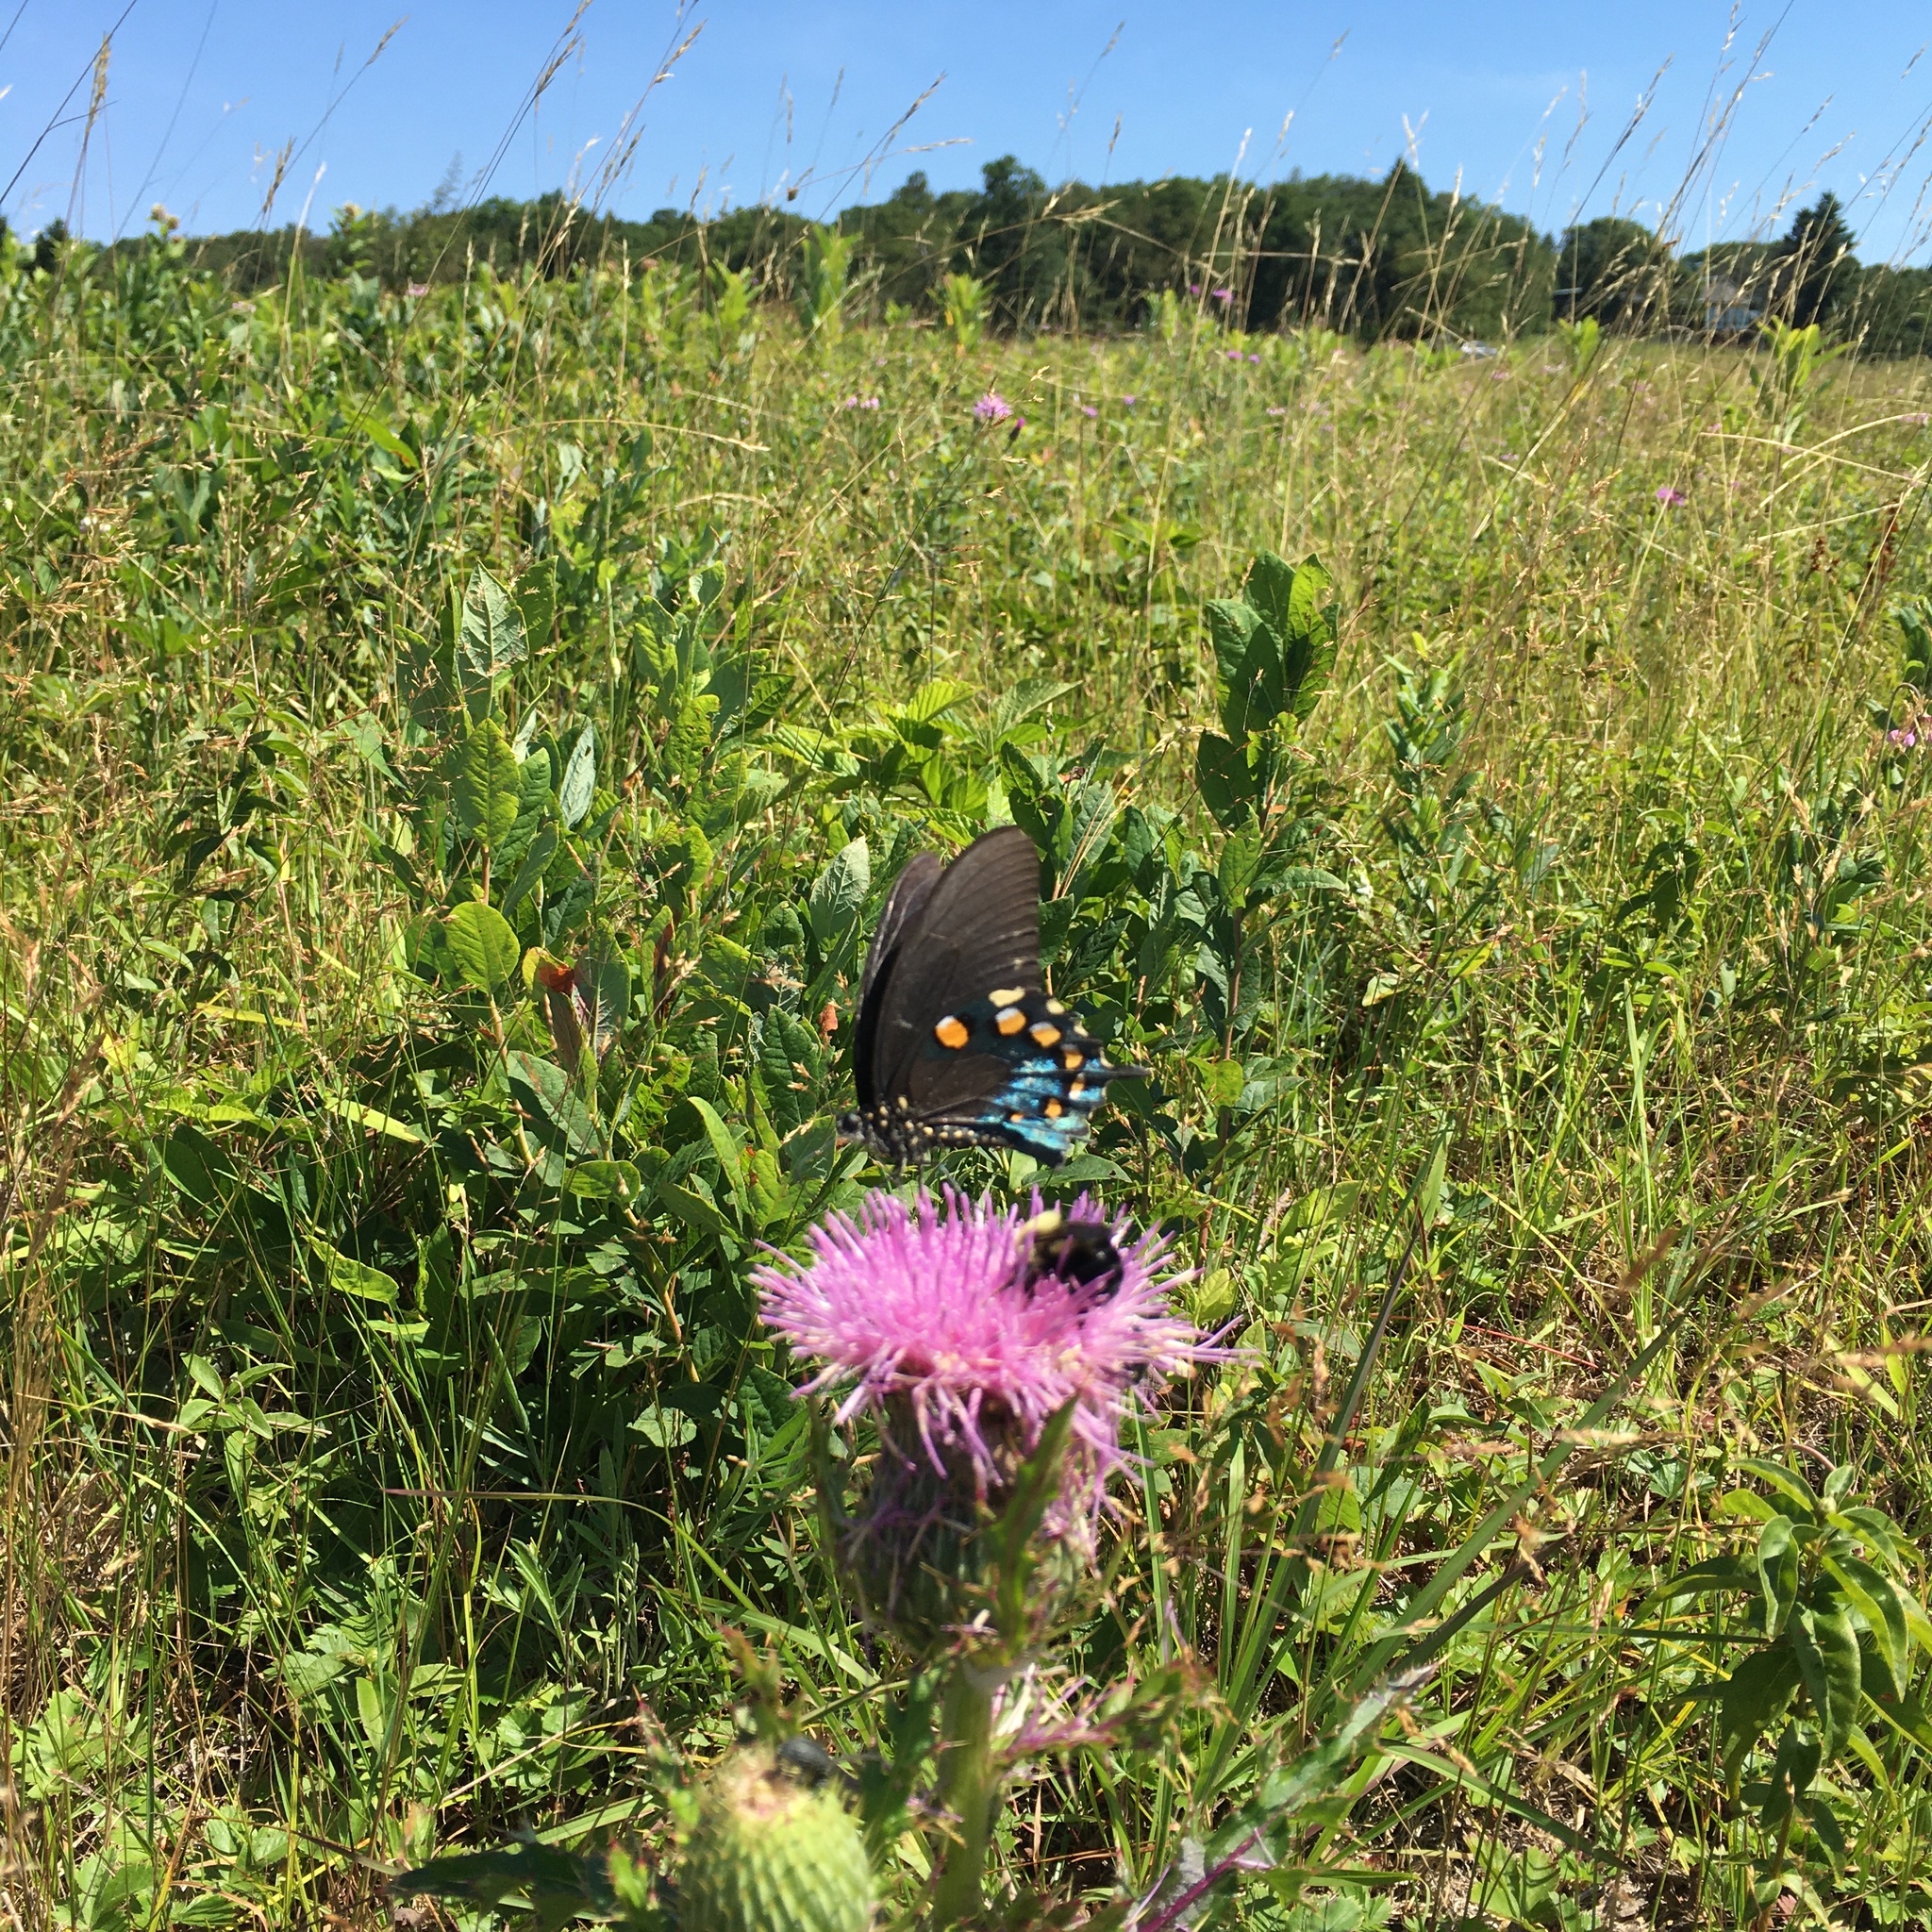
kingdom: Animalia
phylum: Arthropoda
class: Insecta
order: Lepidoptera
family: Papilionidae
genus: Battus
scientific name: Battus philenor
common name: Pipevine swallowtail
